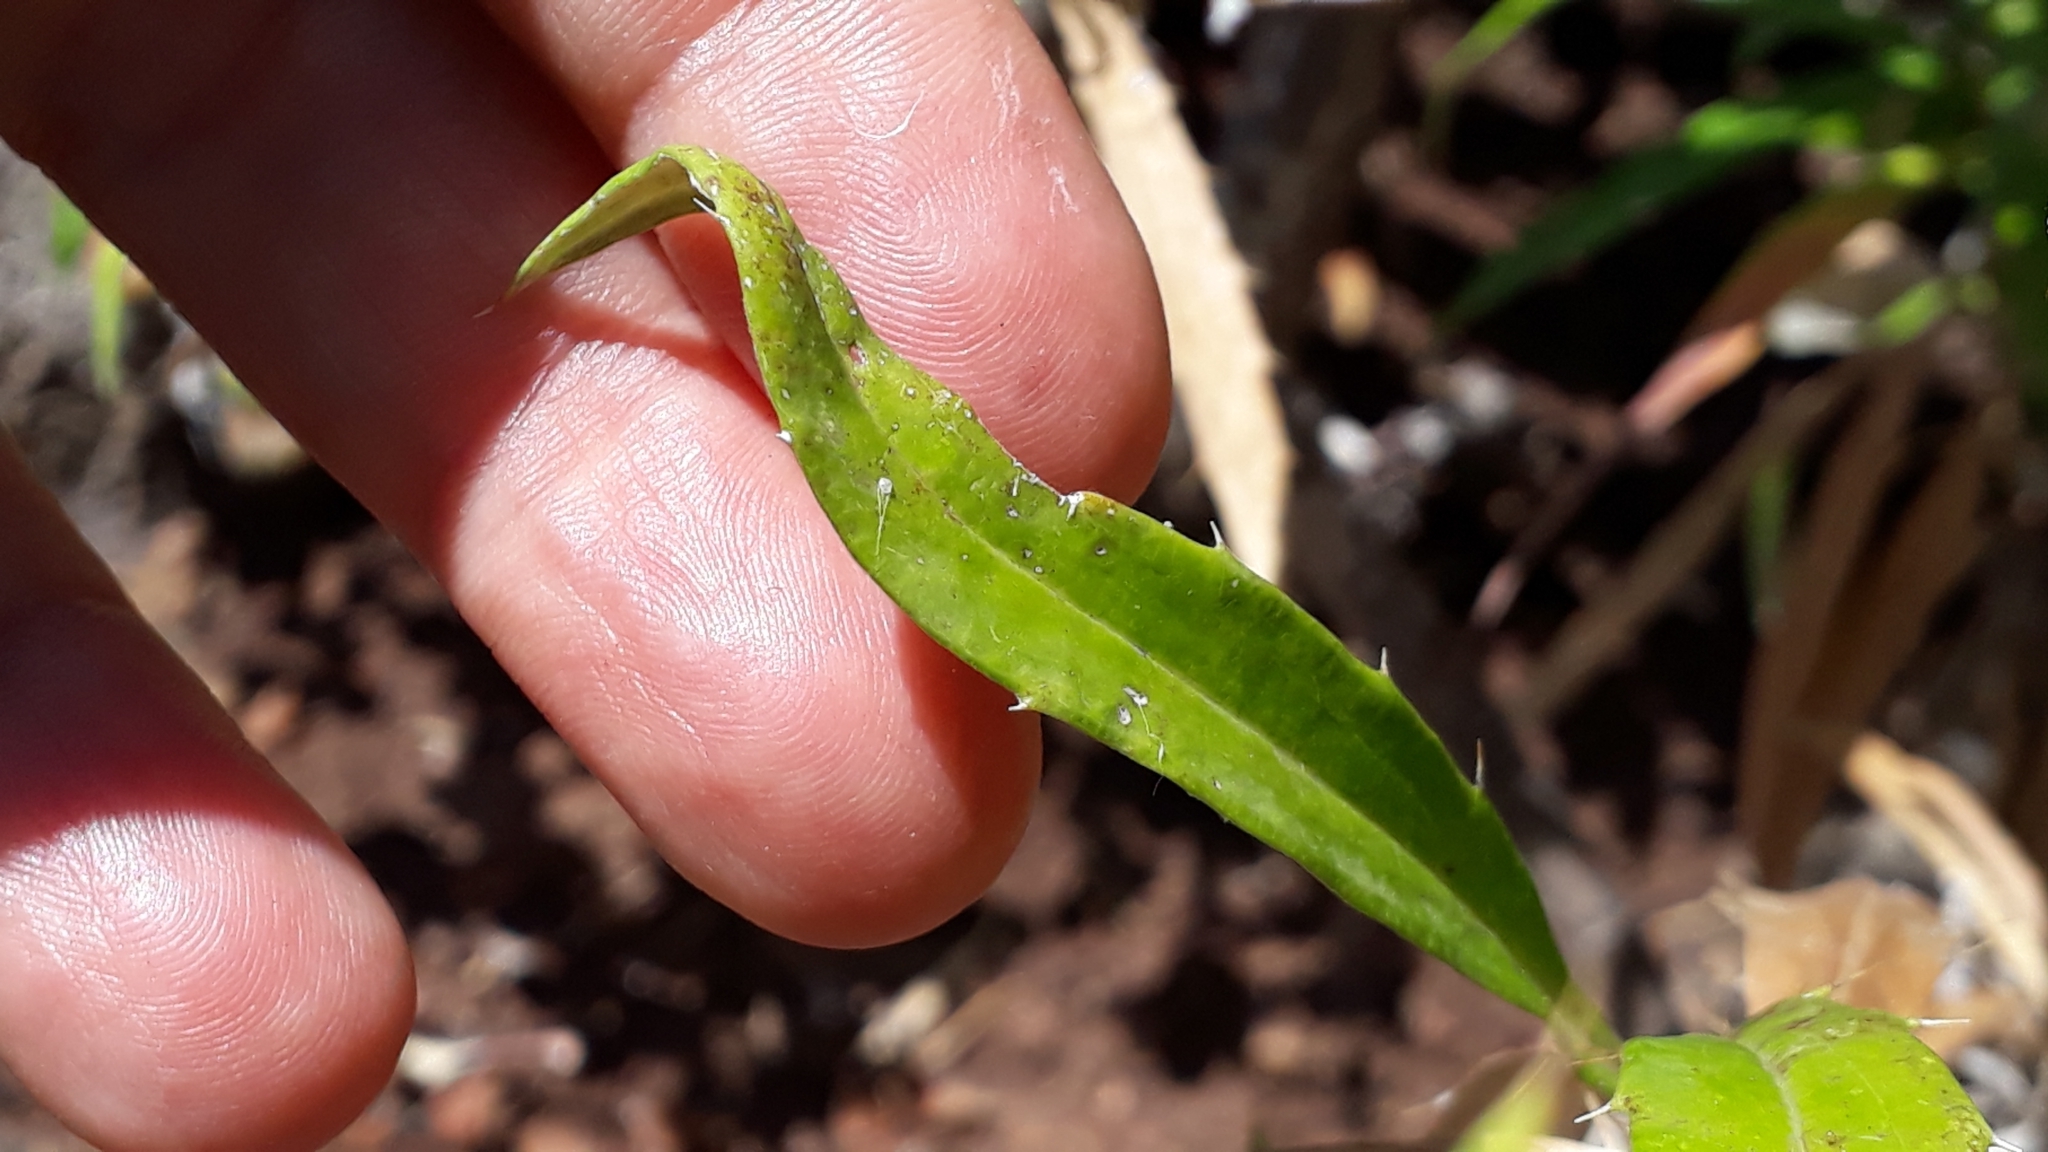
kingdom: Plantae
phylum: Tracheophyta
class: Magnoliopsida
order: Asterales
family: Asteraceae
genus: Carlina
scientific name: Carlina salicifolia
